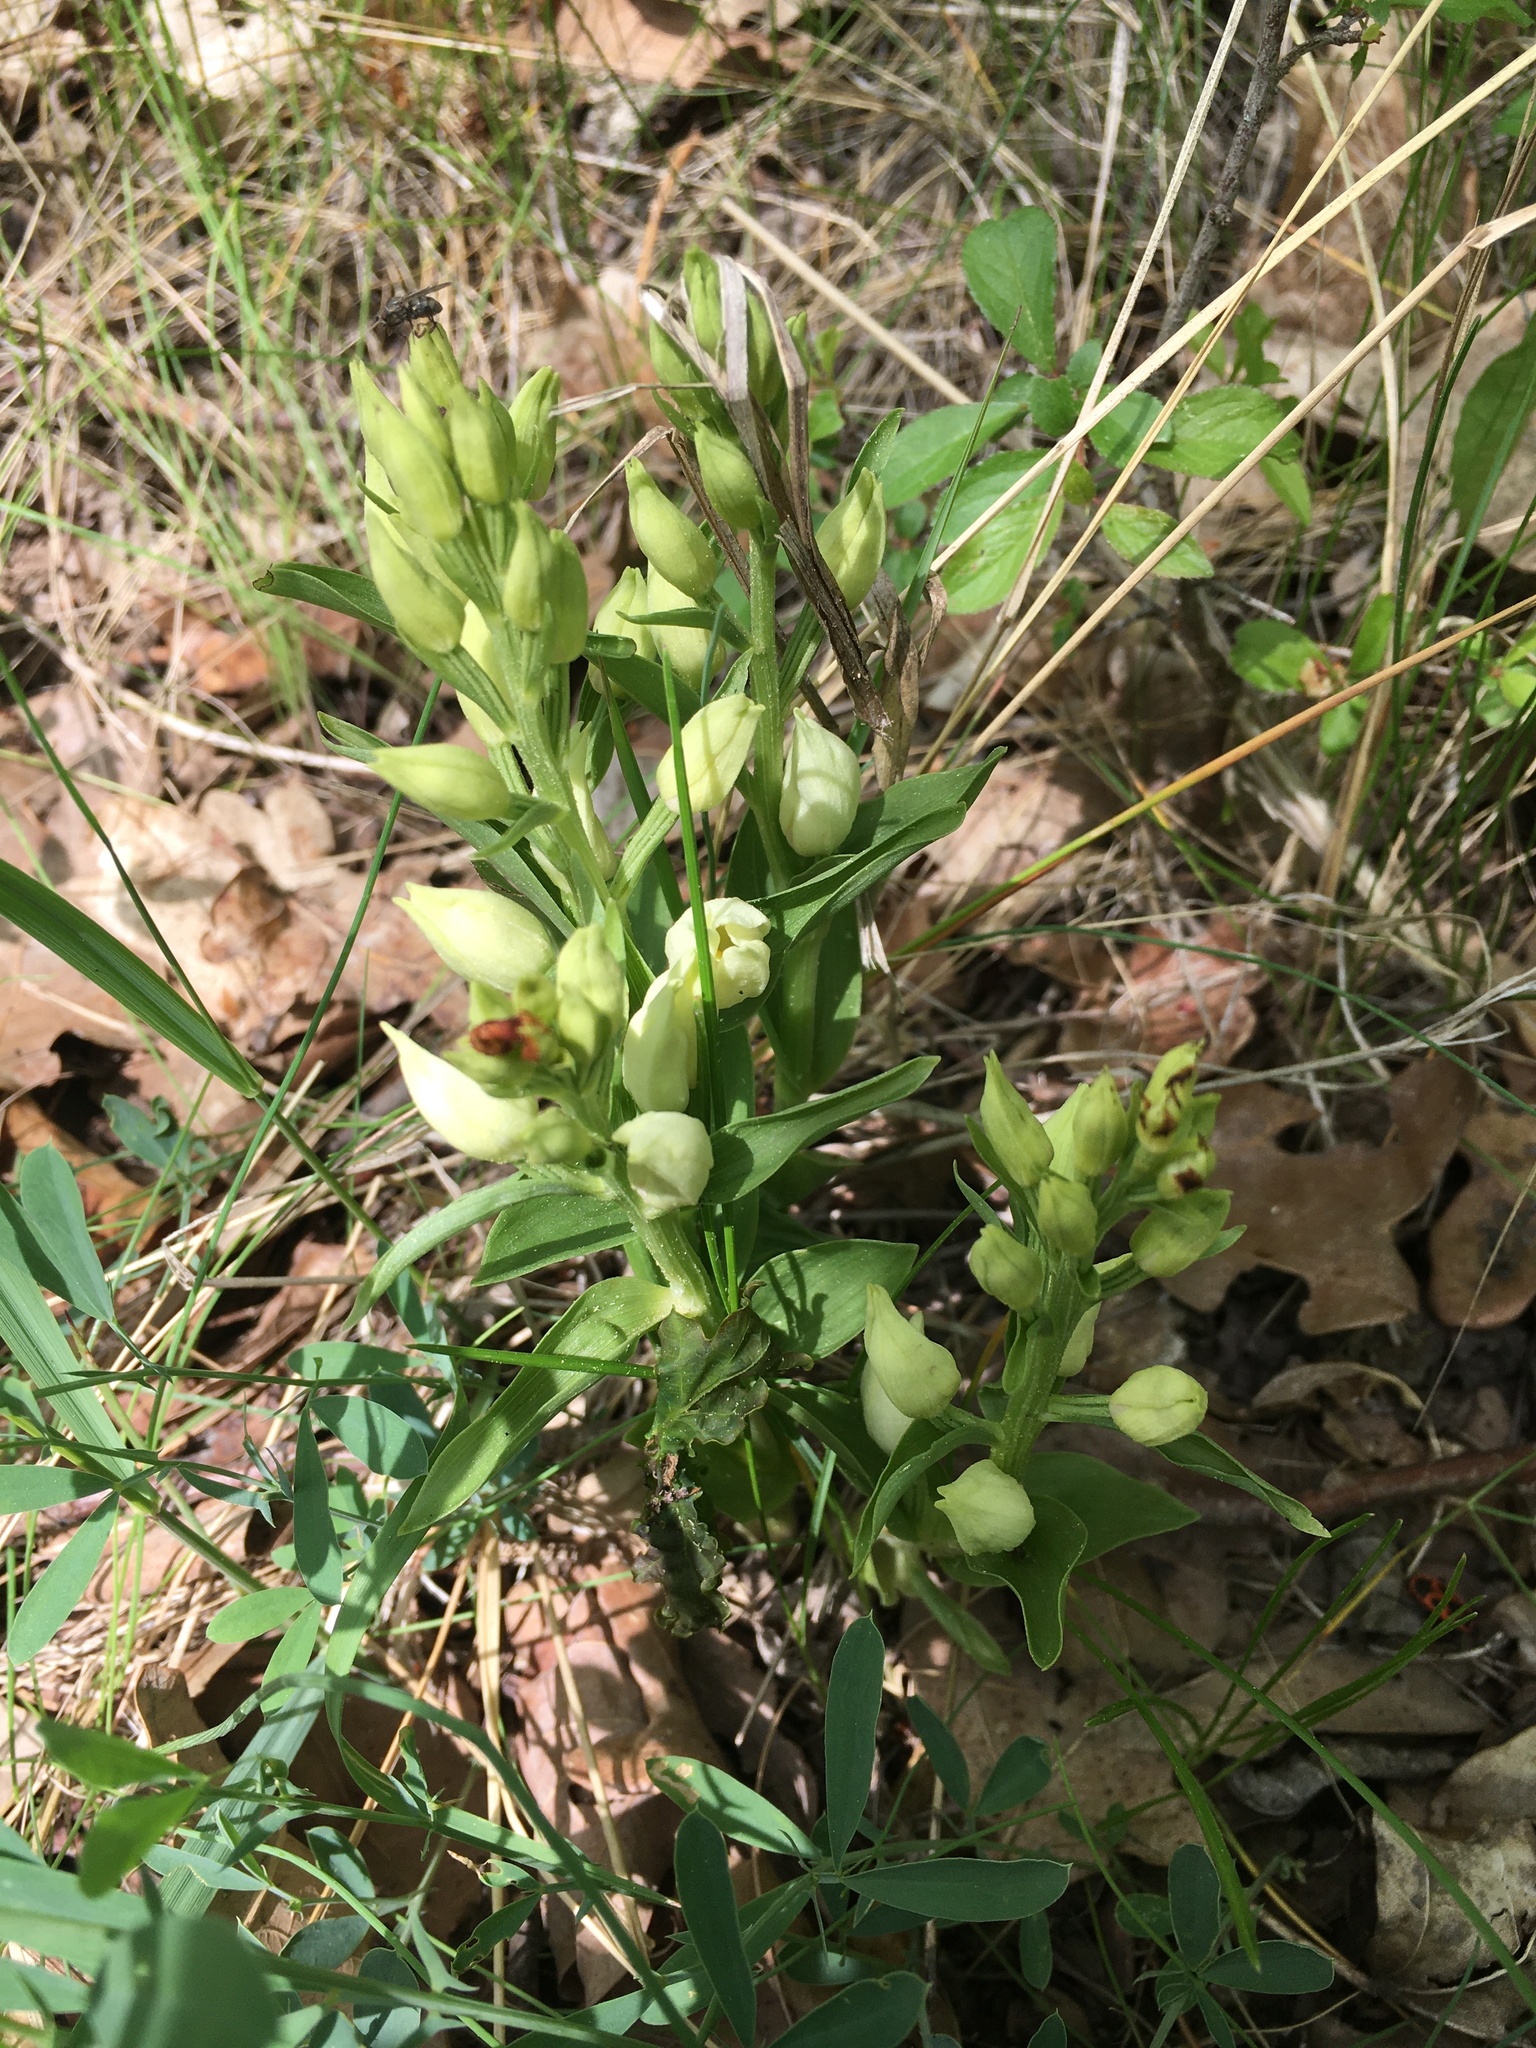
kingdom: Plantae
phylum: Tracheophyta
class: Liliopsida
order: Asparagales
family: Orchidaceae
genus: Cephalanthera
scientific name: Cephalanthera damasonium
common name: White helleborine
